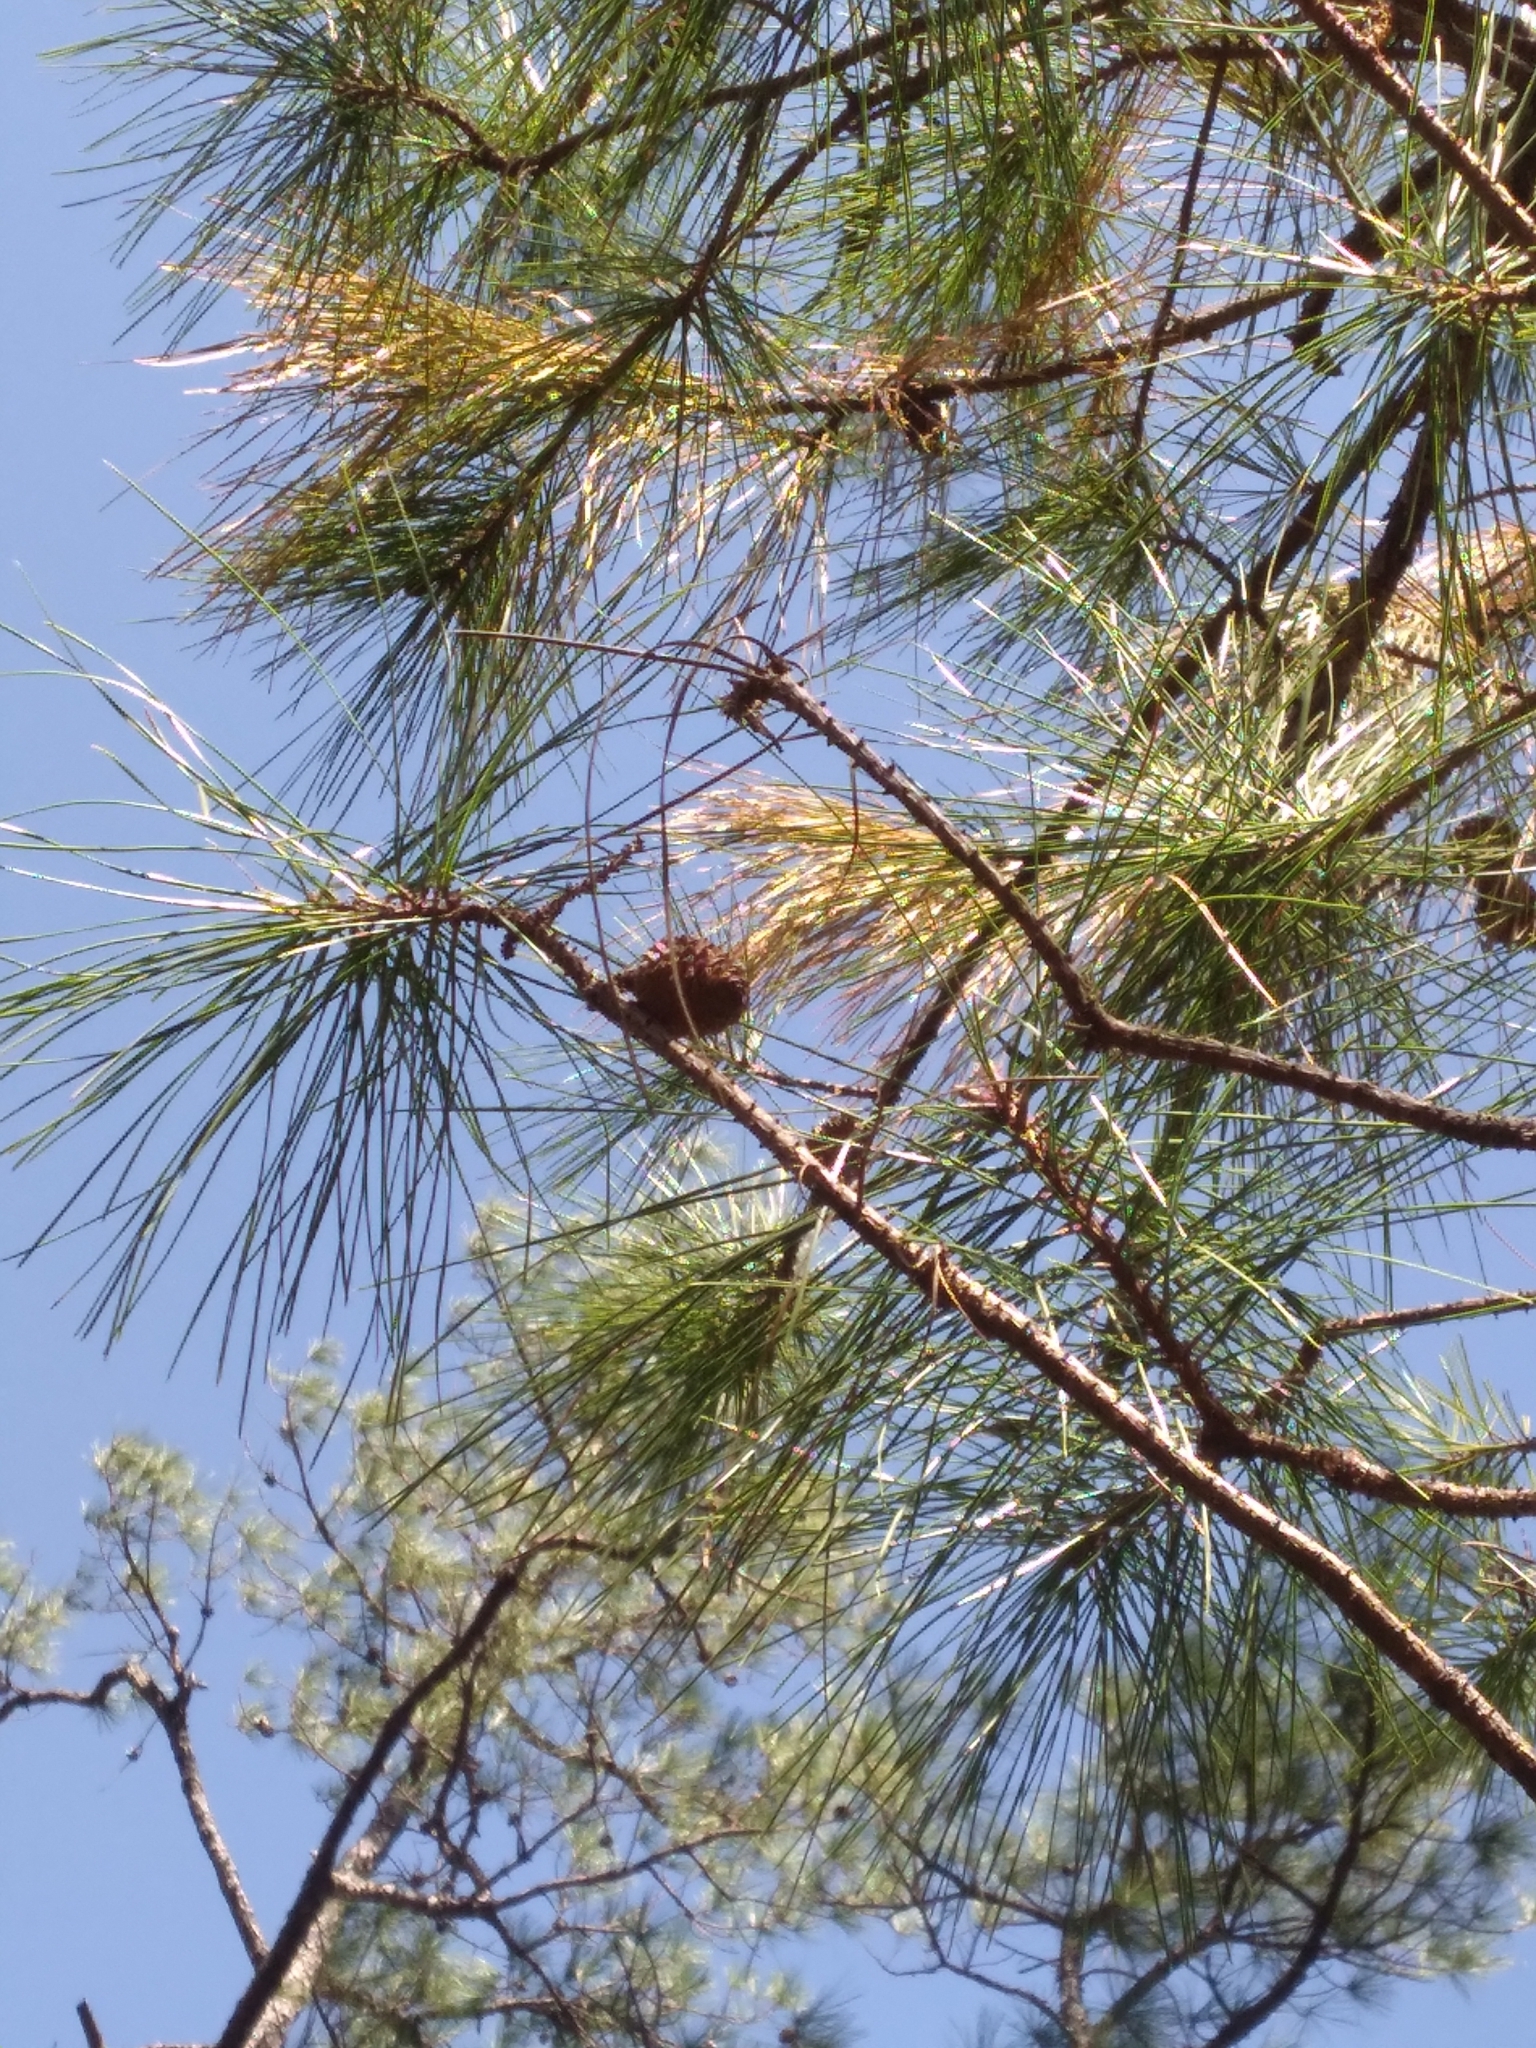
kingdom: Plantae
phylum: Tracheophyta
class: Pinopsida
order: Pinales
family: Pinaceae
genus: Pinus
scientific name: Pinus serotina
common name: Marsh pine
